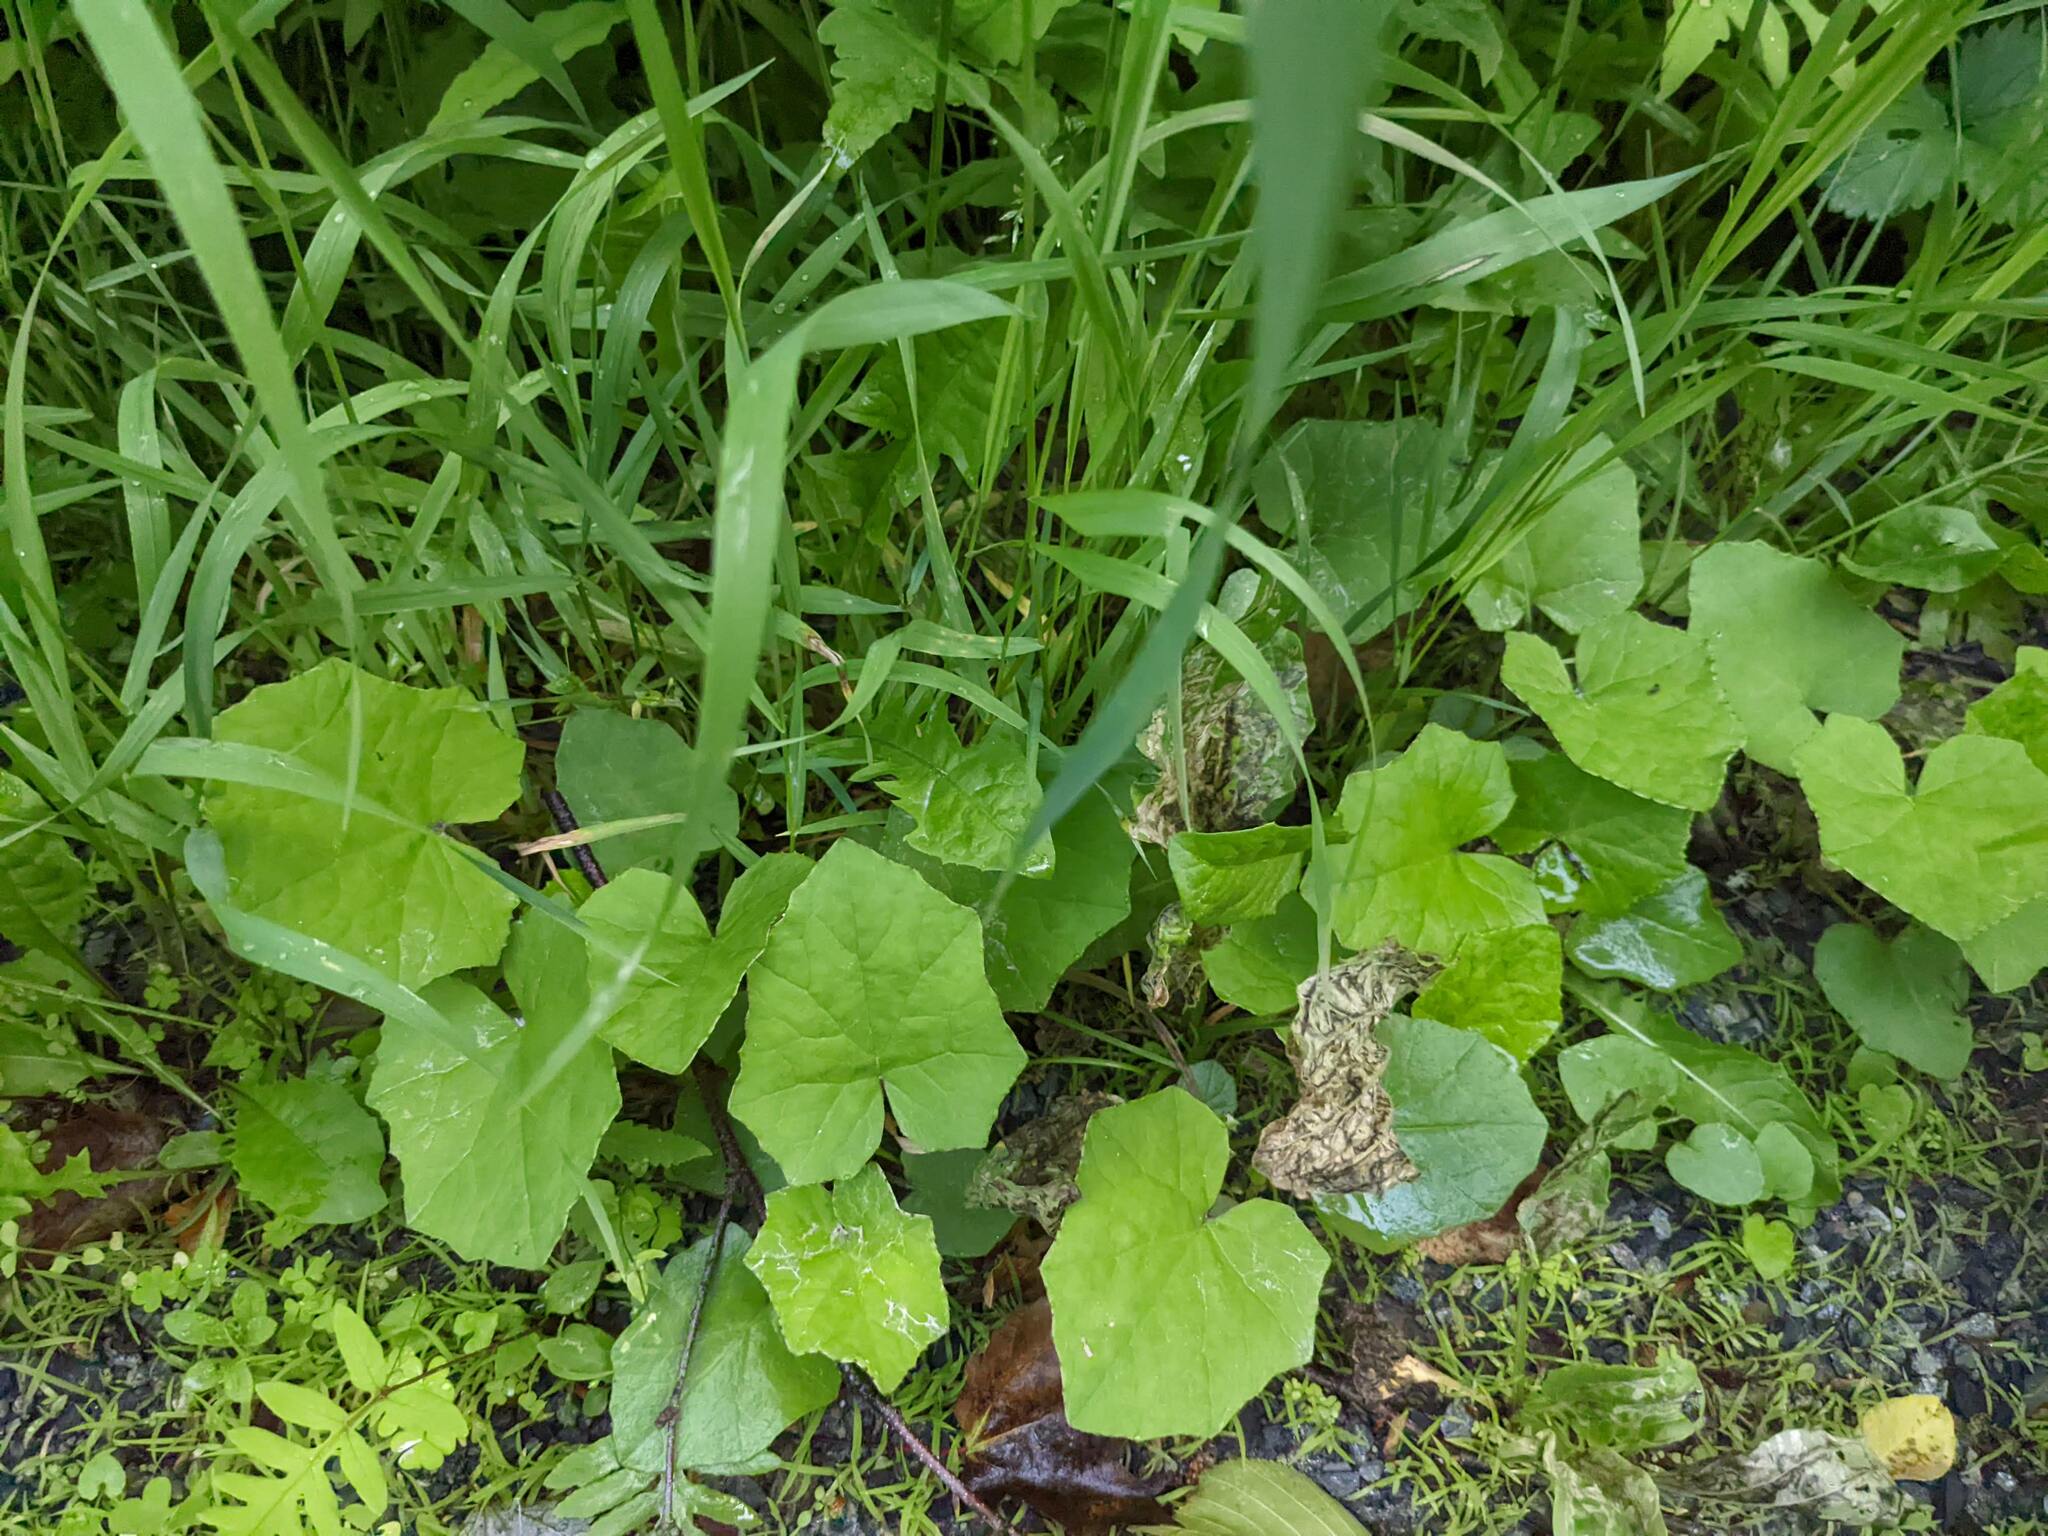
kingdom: Plantae
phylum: Tracheophyta
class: Magnoliopsida
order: Asterales
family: Asteraceae
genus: Tussilago
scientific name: Tussilago farfara
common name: Coltsfoot
